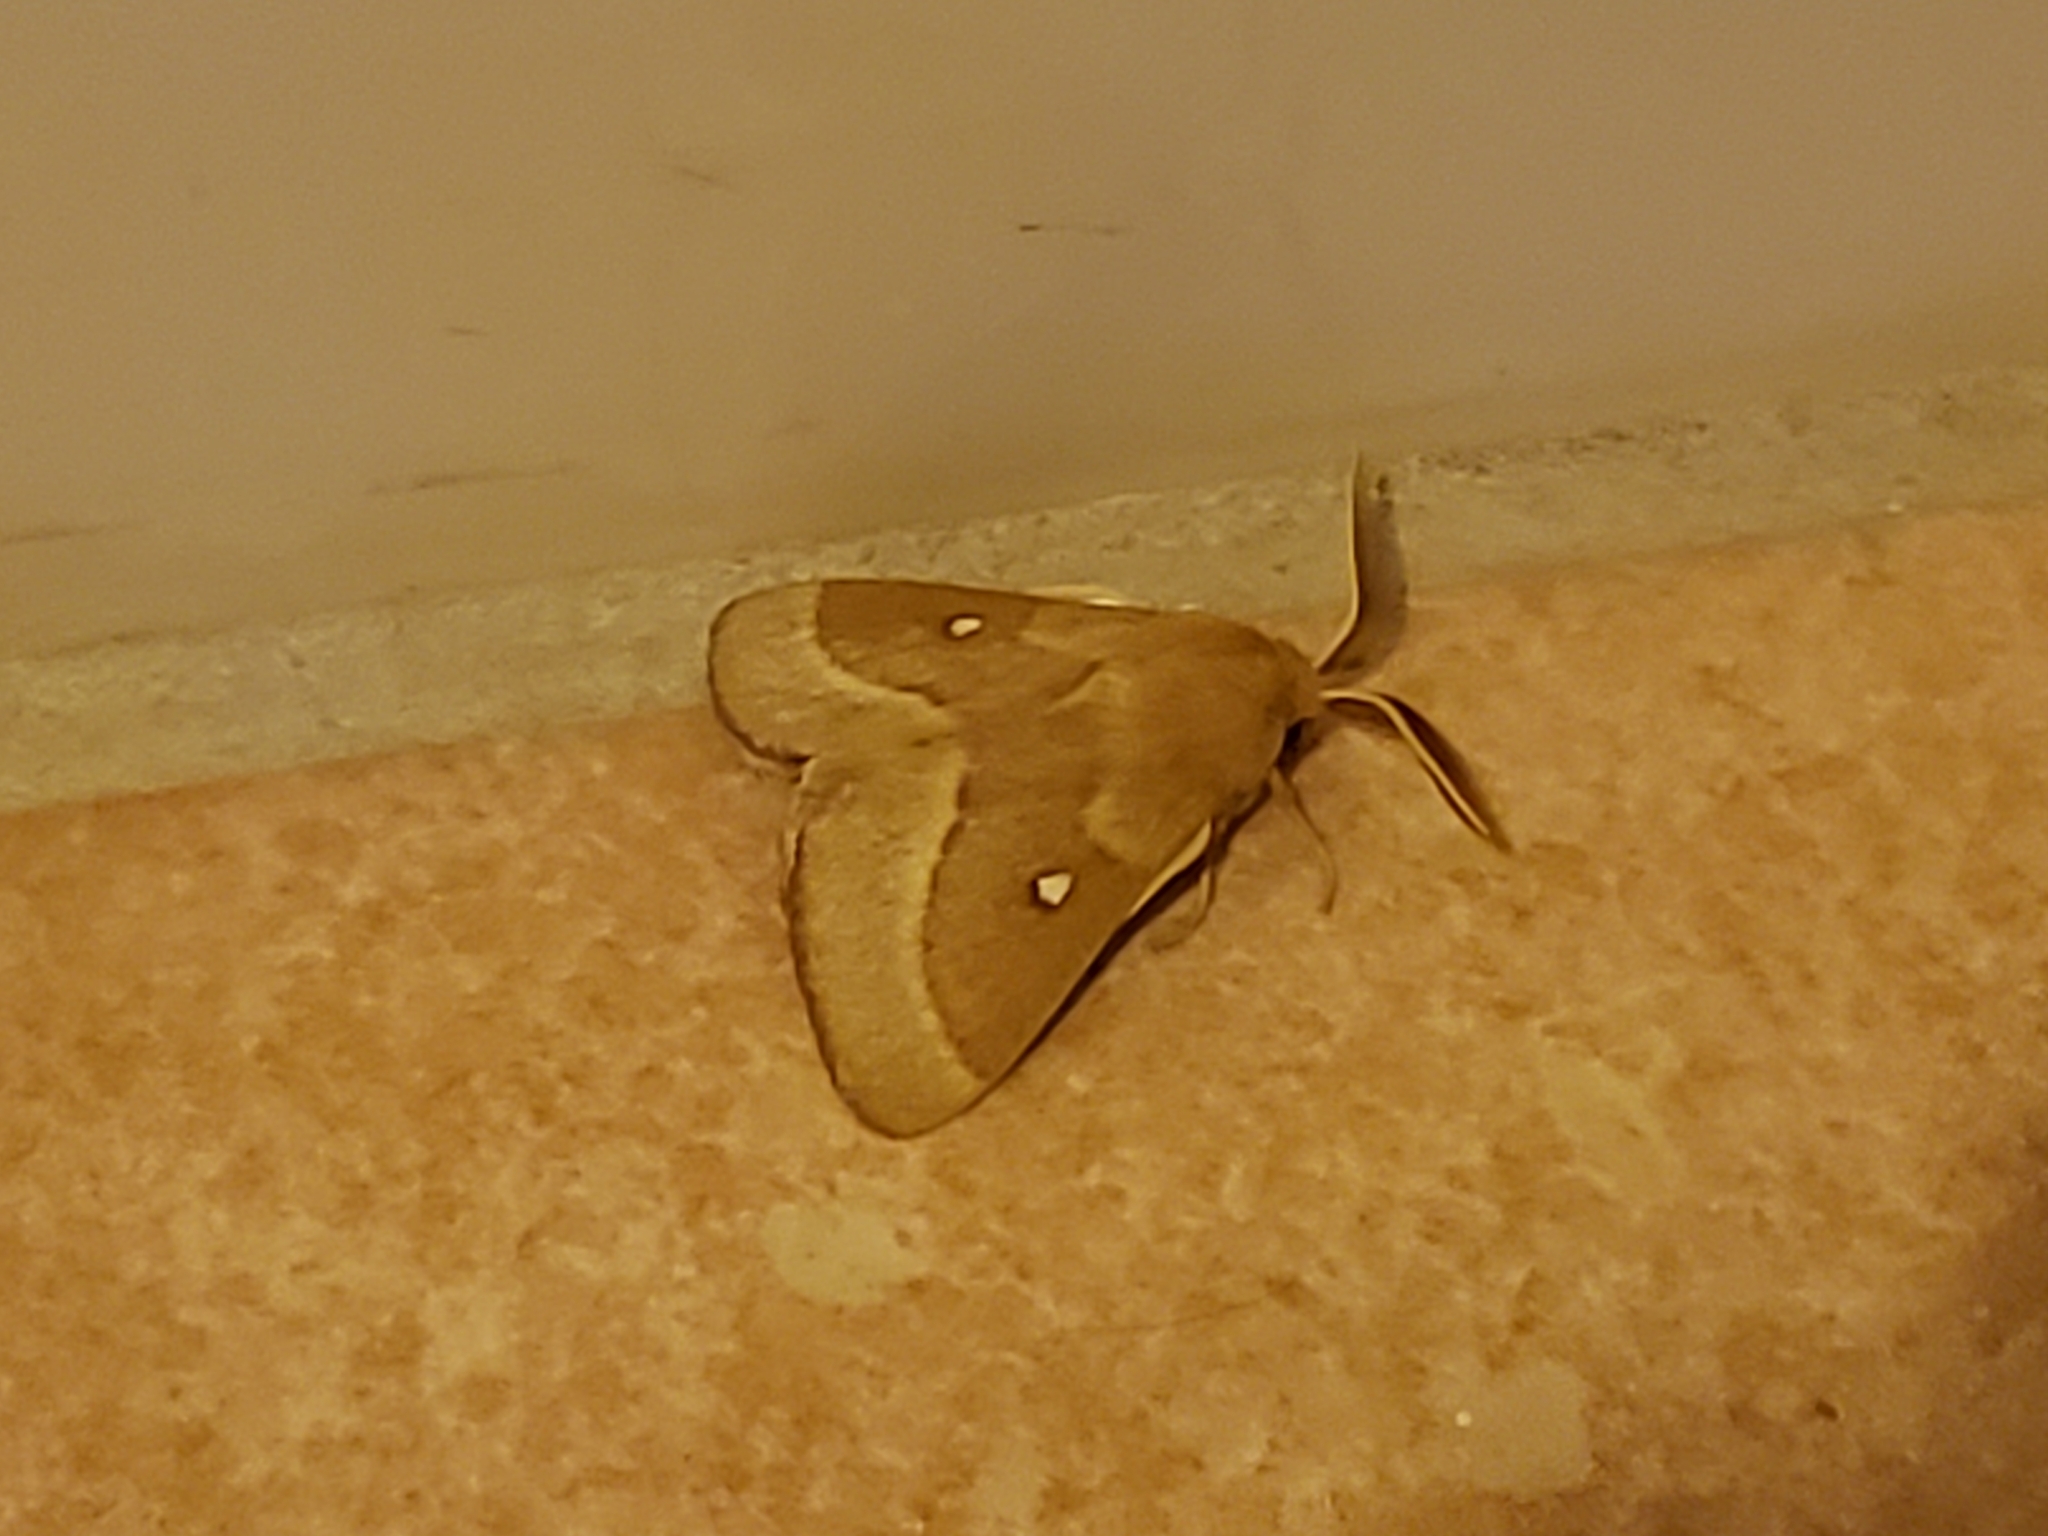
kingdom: Animalia
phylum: Arthropoda
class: Insecta
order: Lepidoptera
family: Lasiocampidae
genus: Lasiocampa
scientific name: Lasiocampa trifolii
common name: Grass eggar
